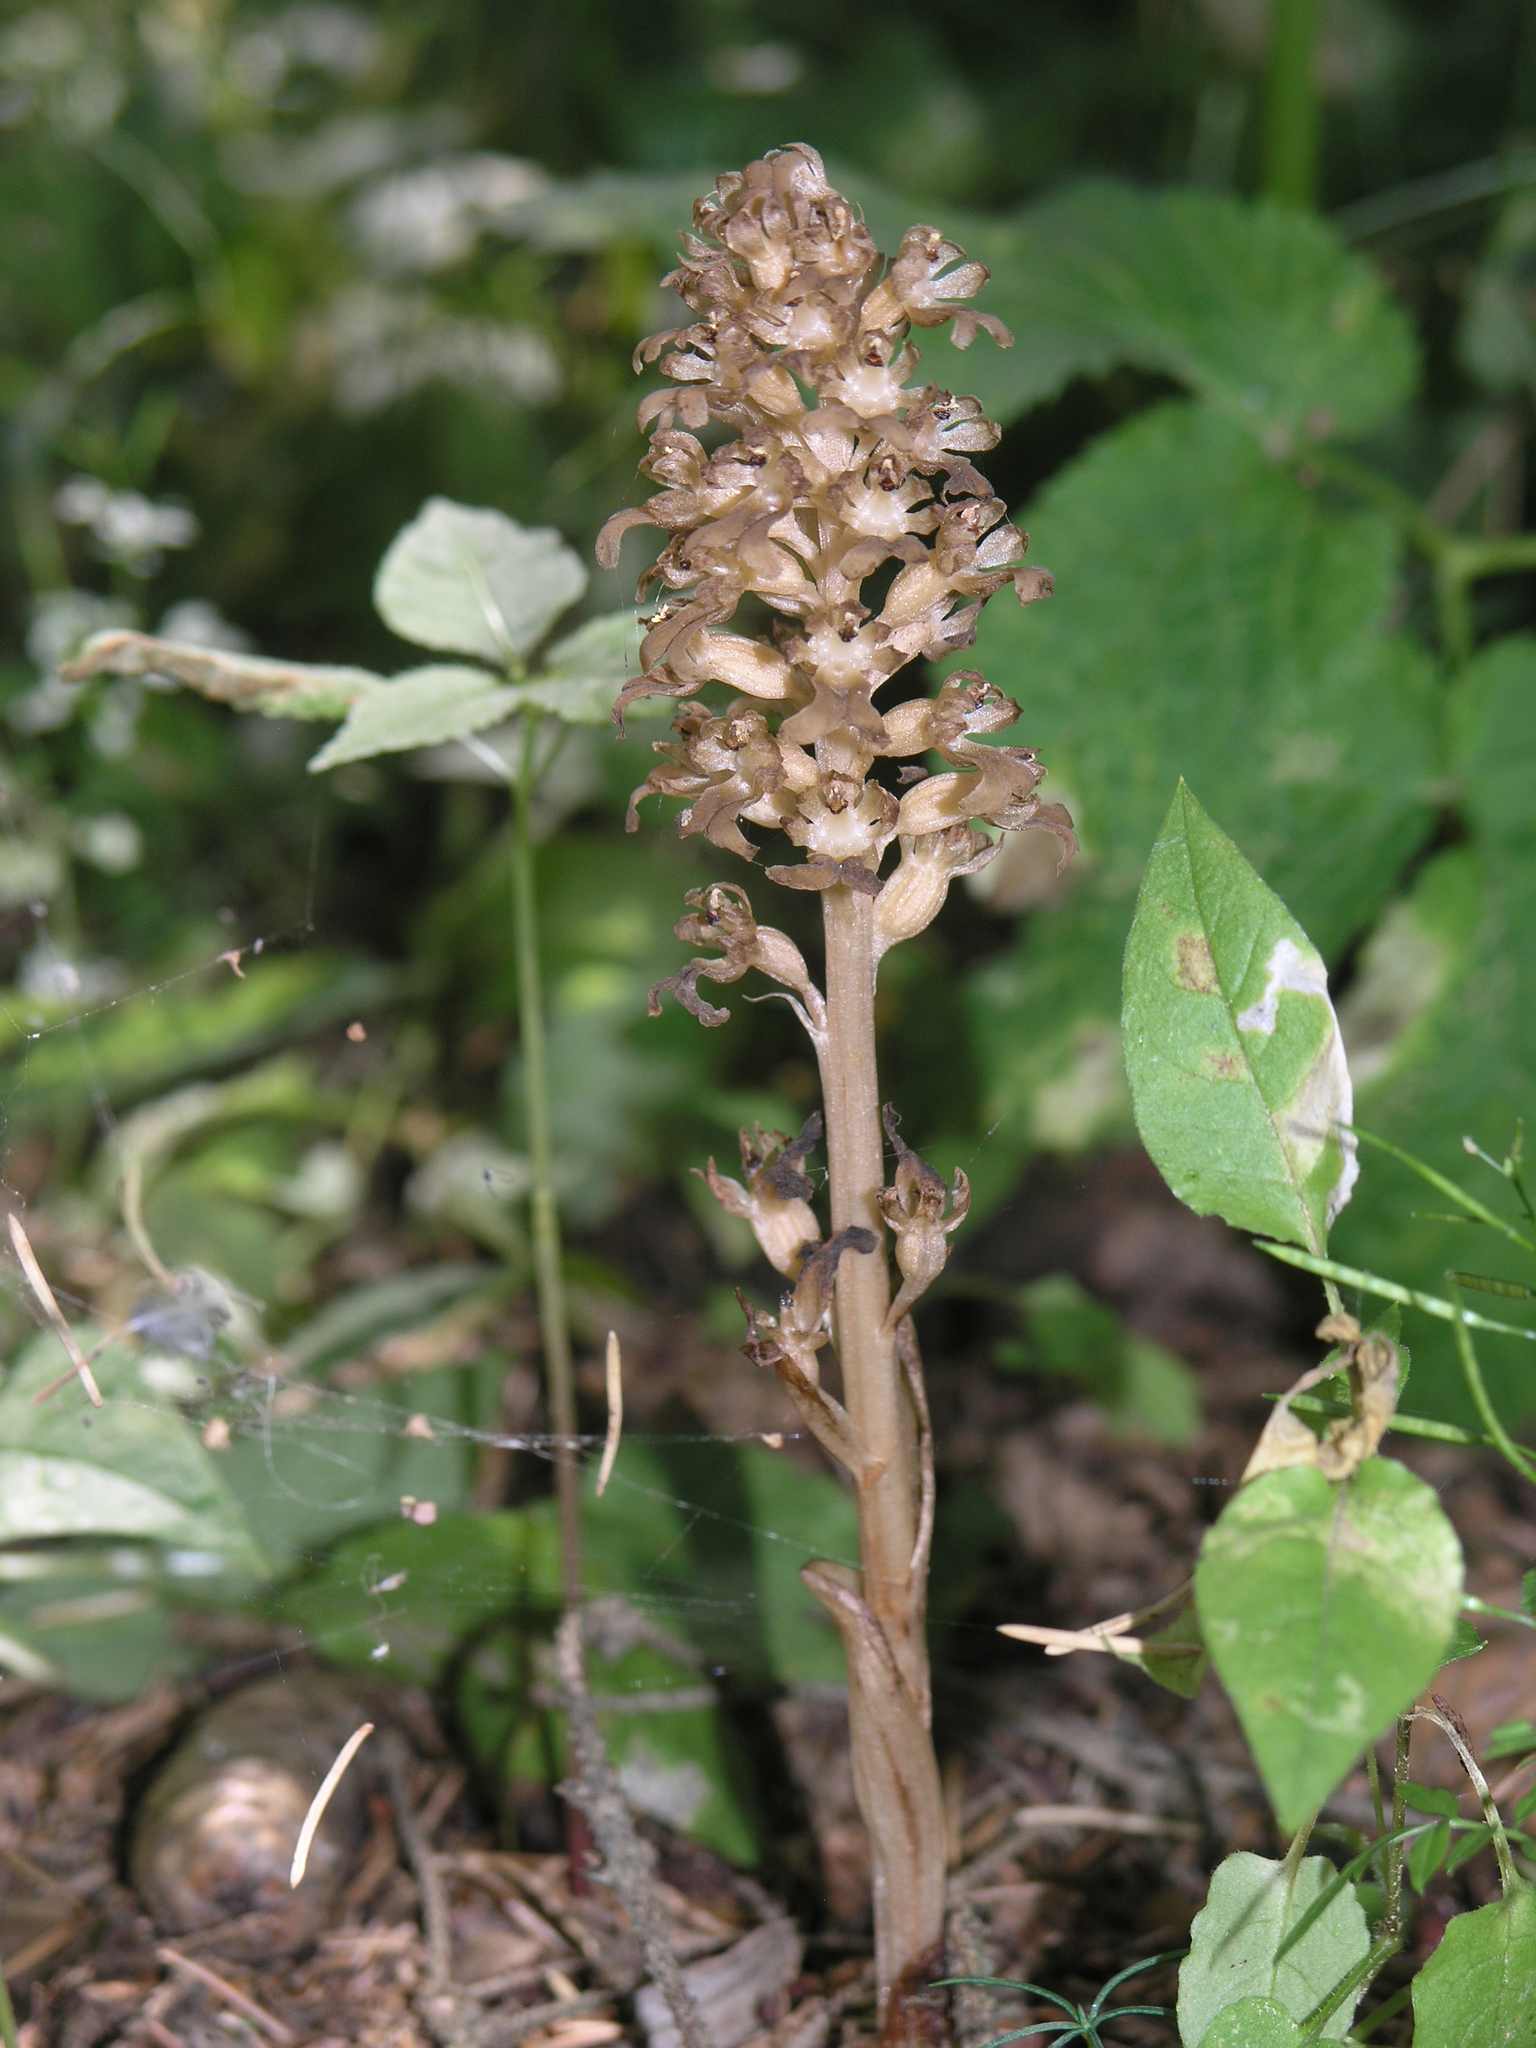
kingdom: Plantae
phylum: Tracheophyta
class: Liliopsida
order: Asparagales
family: Orchidaceae
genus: Neottia
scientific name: Neottia nidus-avis
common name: Bird's-nest orchid
